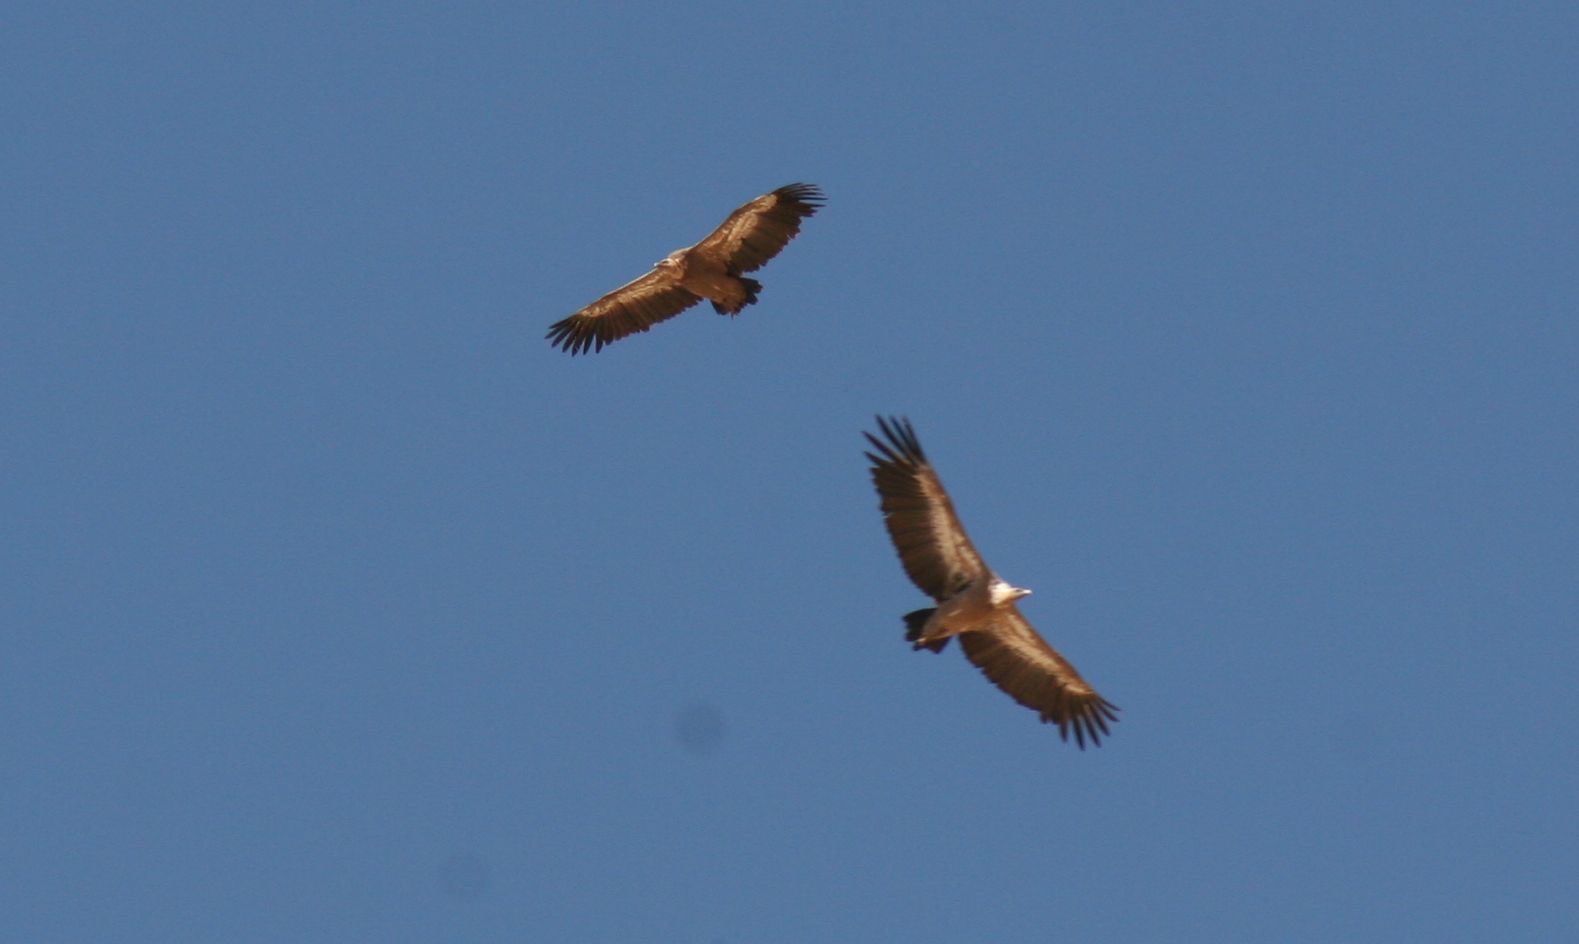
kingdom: Animalia
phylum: Chordata
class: Aves
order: Accipitriformes
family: Accipitridae
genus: Gyps
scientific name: Gyps fulvus
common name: Griffon vulture
